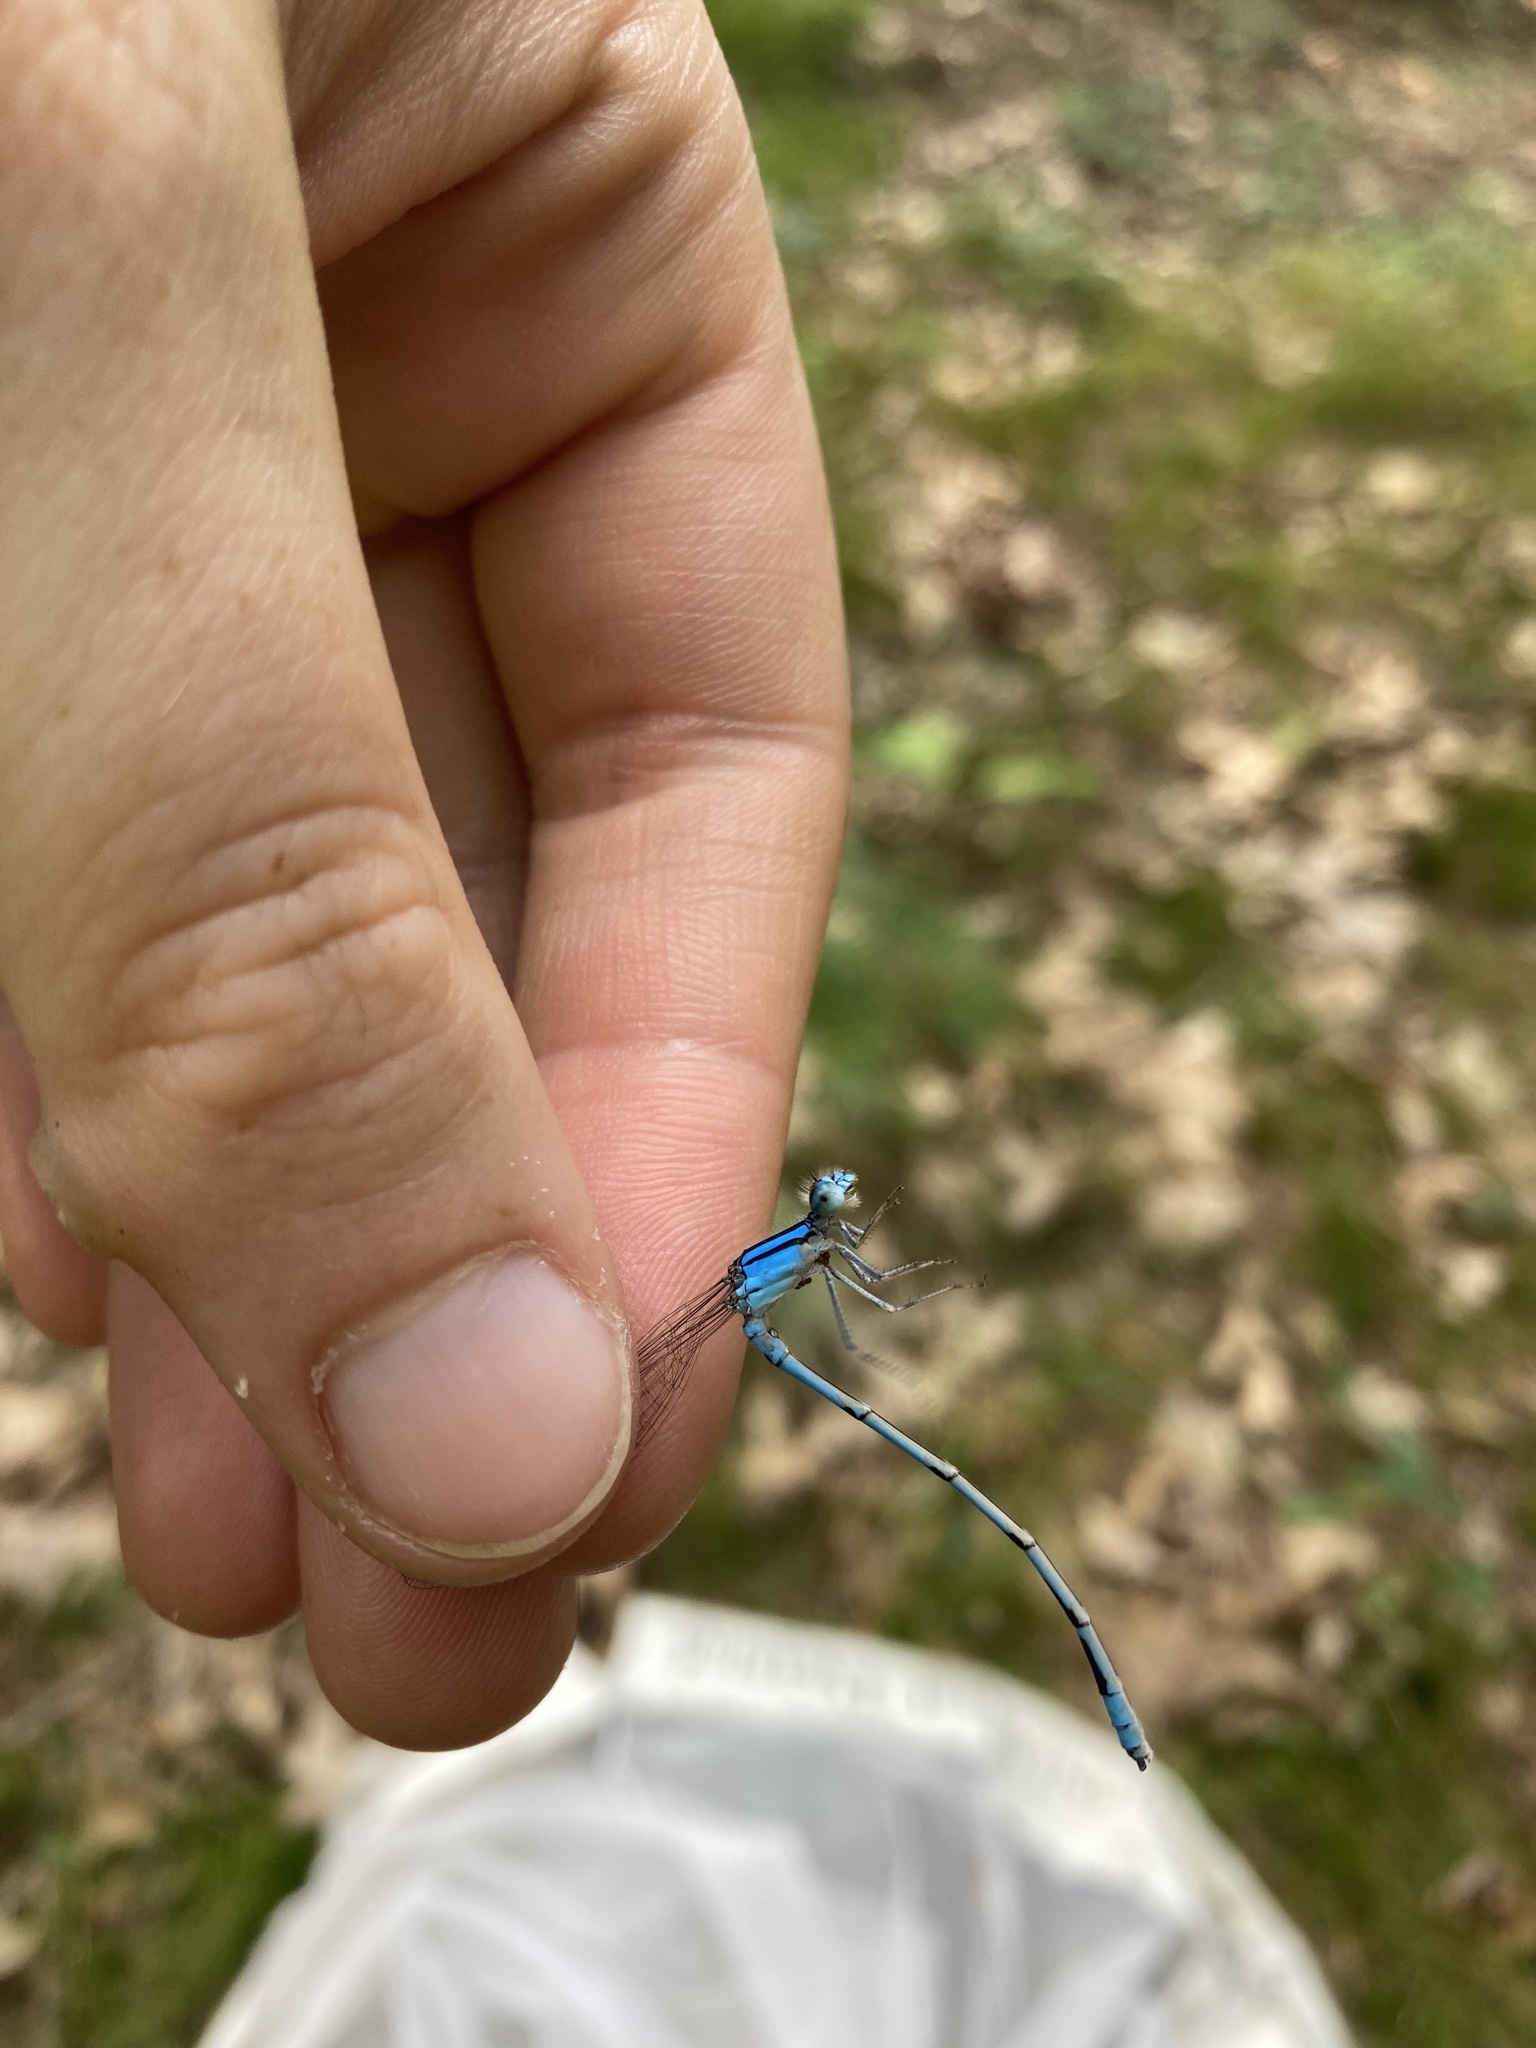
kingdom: Animalia
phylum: Arthropoda
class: Insecta
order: Odonata
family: Coenagrionidae
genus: Enallagma
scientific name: Enallagma civile
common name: Damselfly
